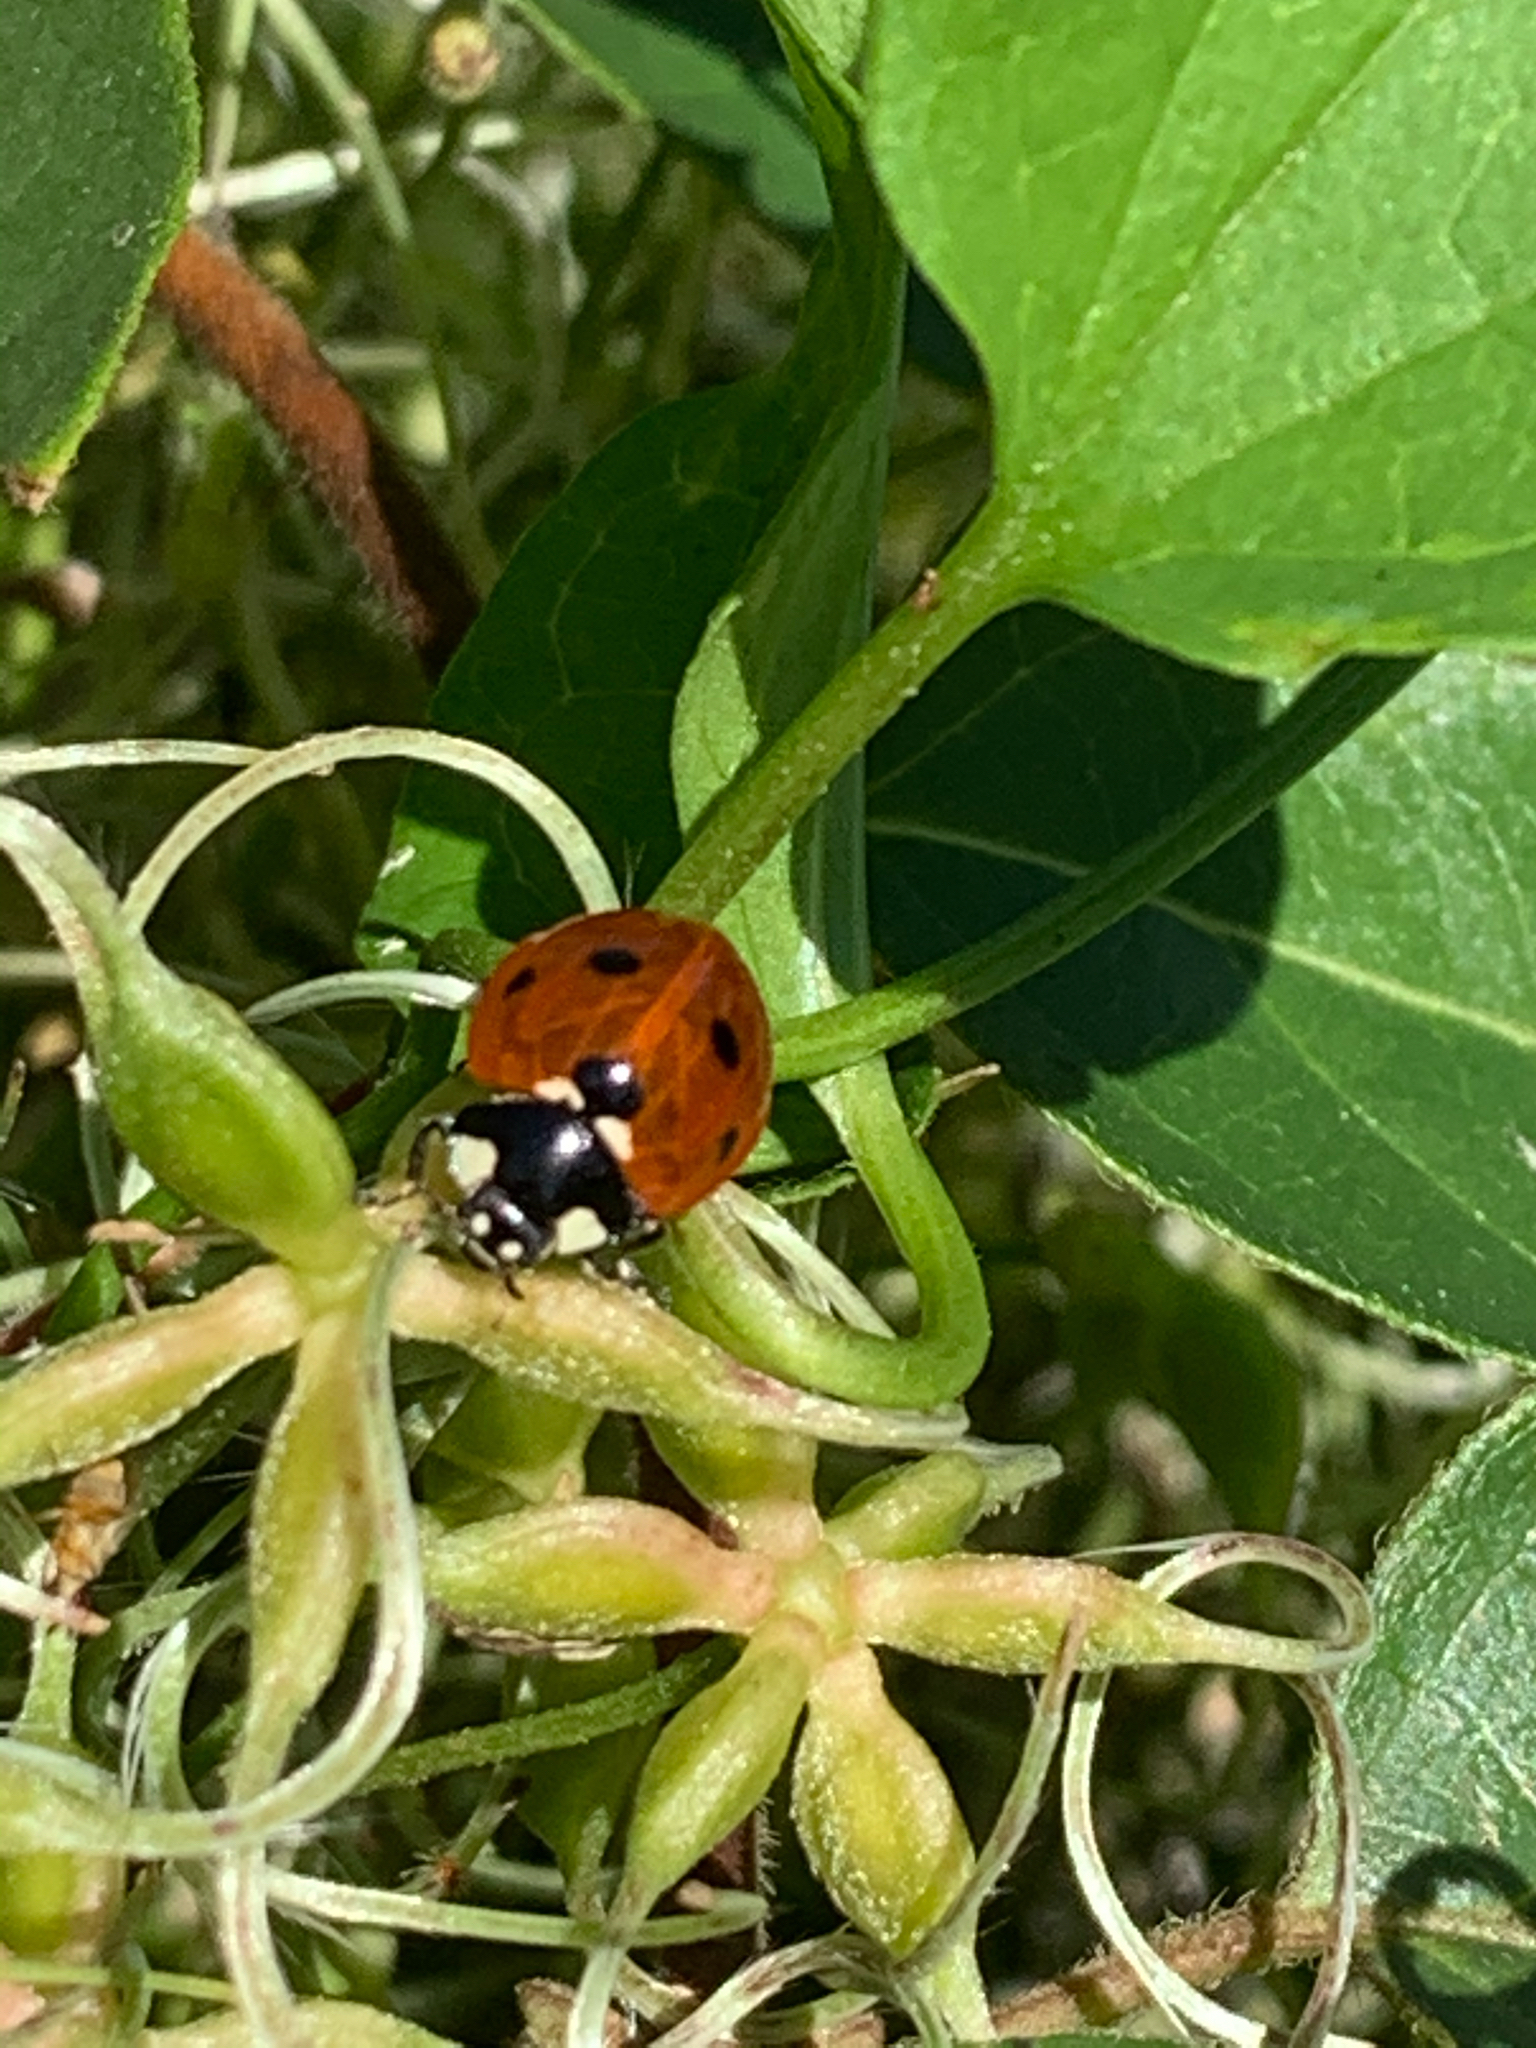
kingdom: Animalia
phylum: Arthropoda
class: Insecta
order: Coleoptera
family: Coccinellidae
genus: Coccinella
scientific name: Coccinella septempunctata
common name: Sevenspotted lady beetle
